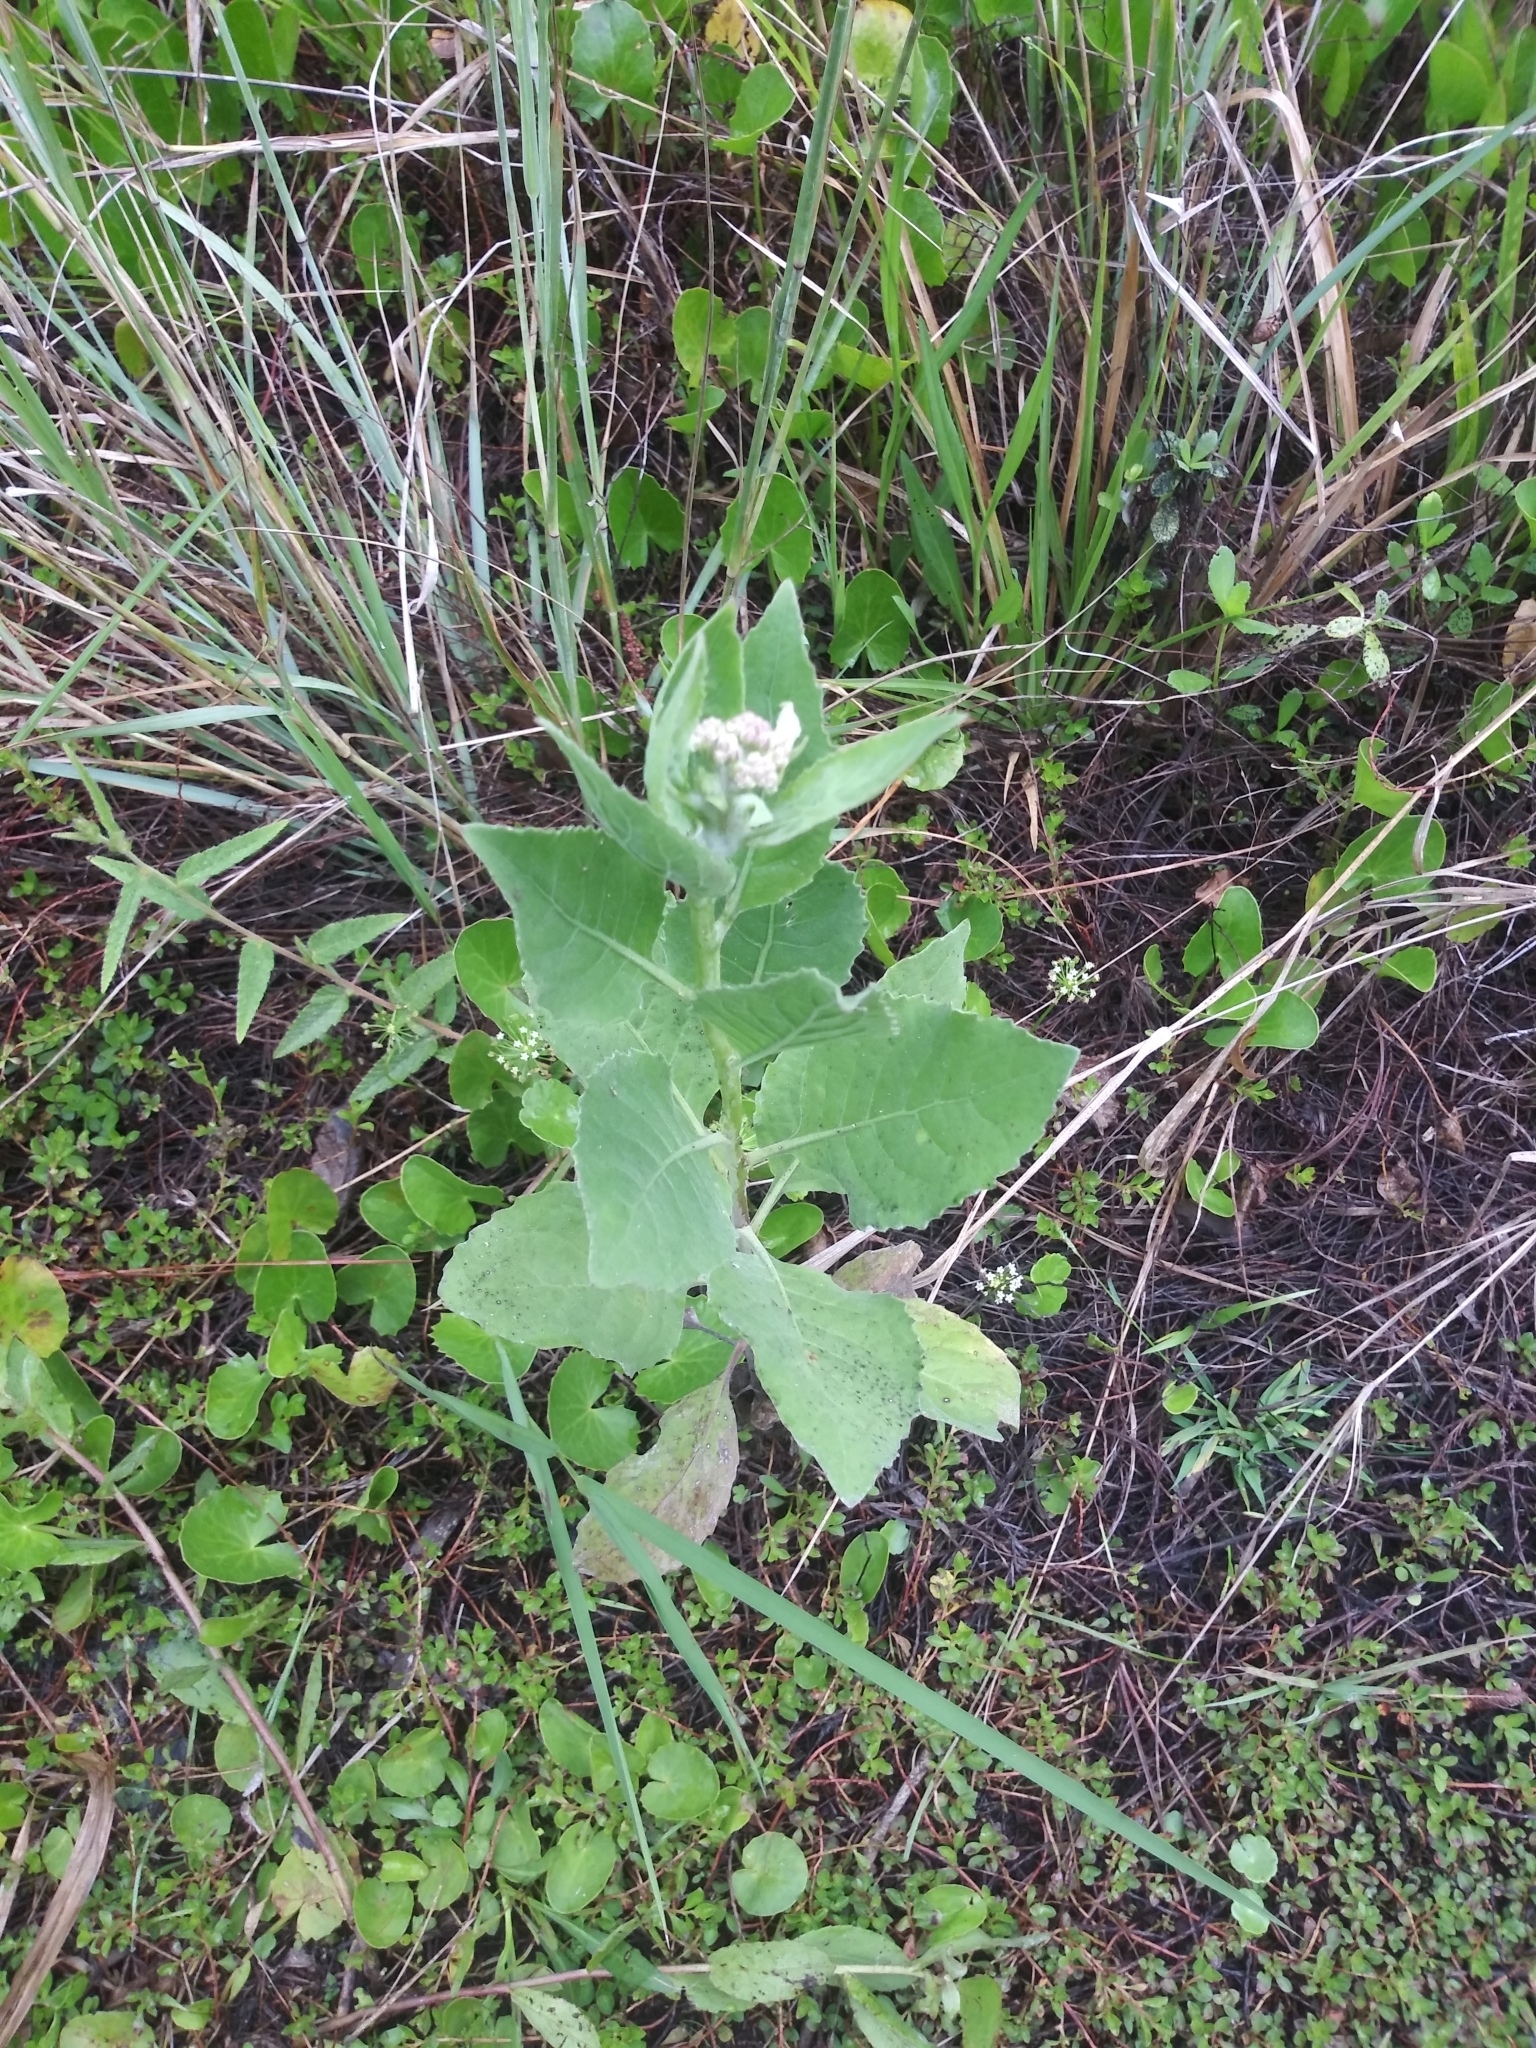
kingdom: Plantae
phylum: Tracheophyta
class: Magnoliopsida
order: Asterales
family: Asteraceae
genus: Pluchea
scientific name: Pluchea odorata
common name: Saltmarsh fleabane
